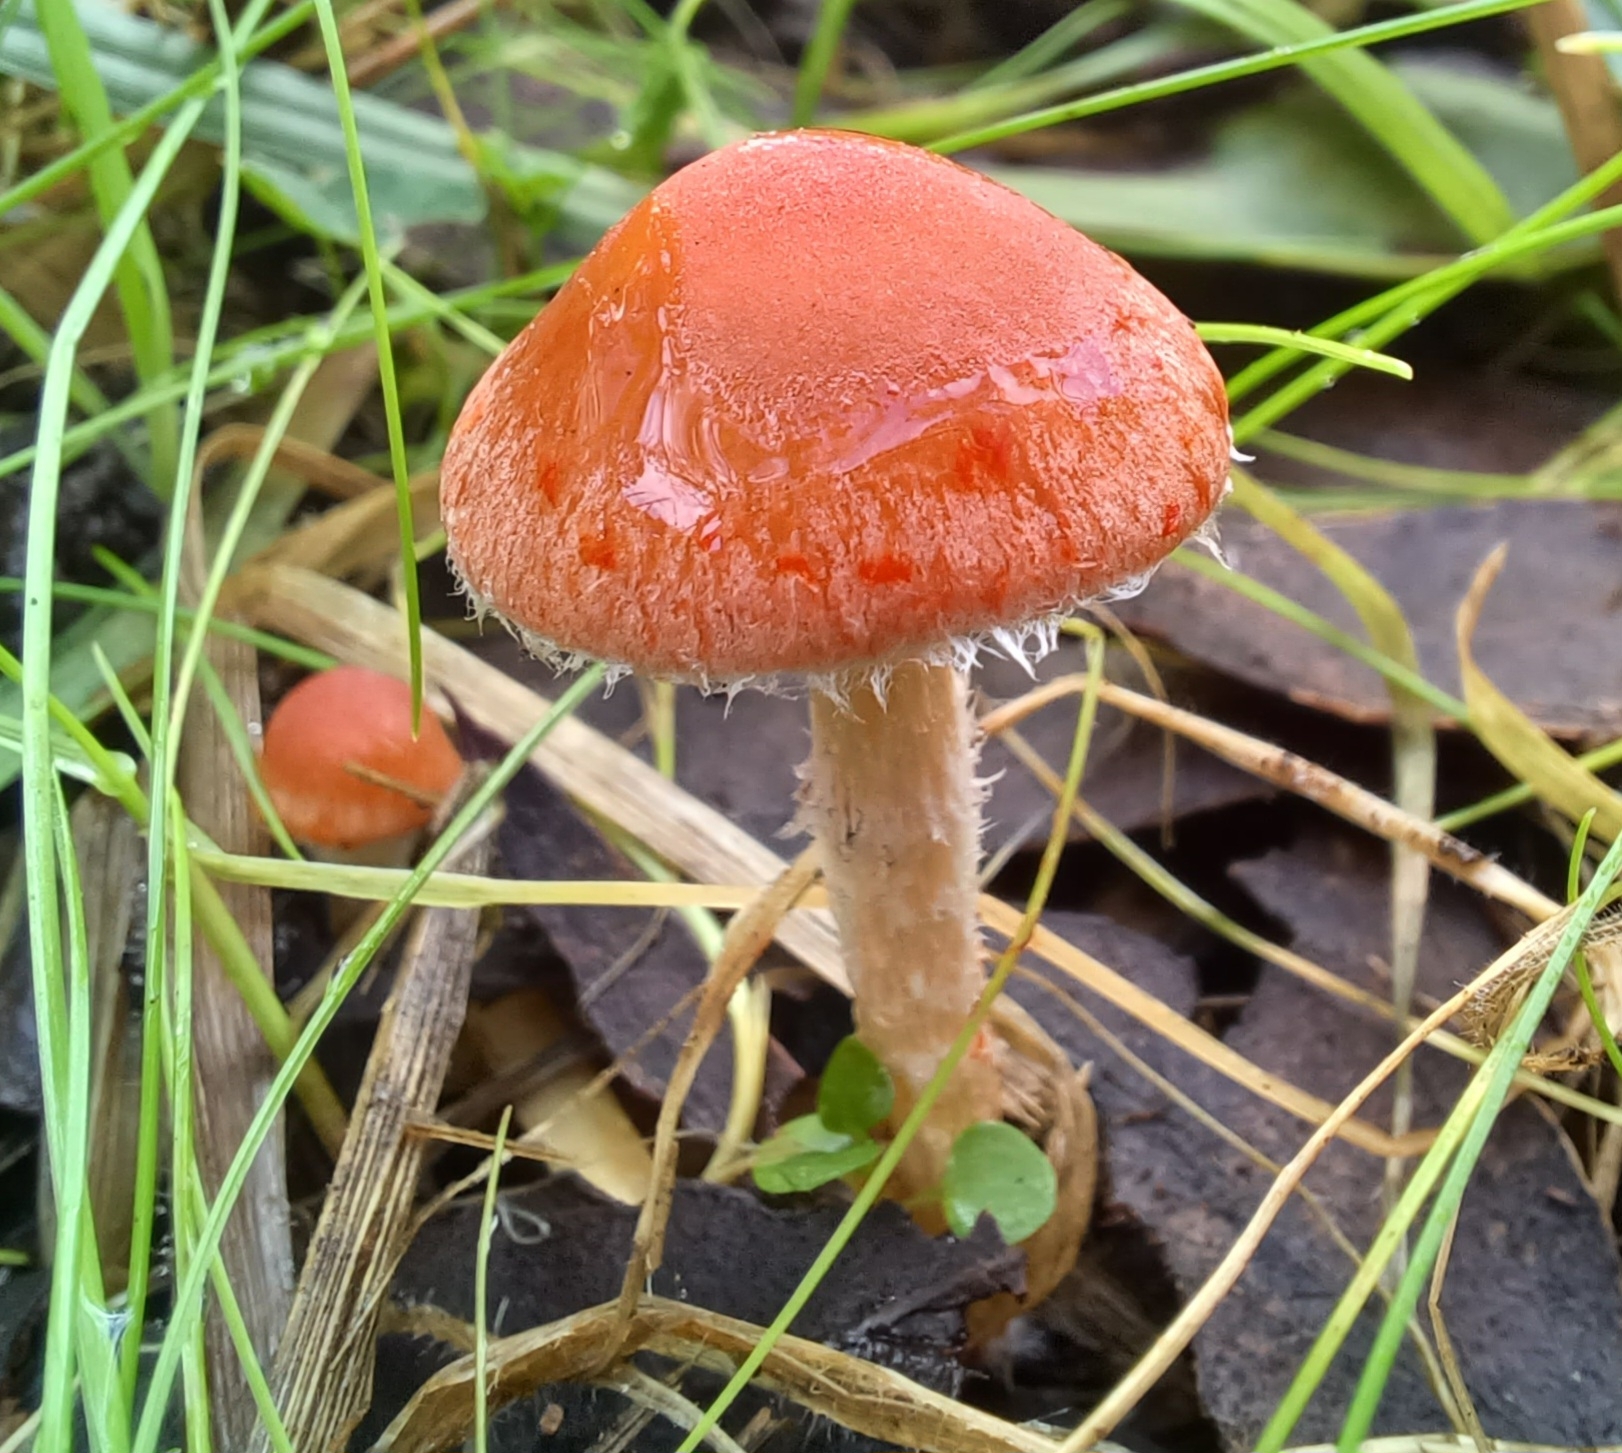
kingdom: Fungi
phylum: Basidiomycota
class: Agaricomycetes
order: Agaricales
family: Strophariaceae
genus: Leratiomyces
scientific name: Leratiomyces ceres
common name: Redlead roundhead
